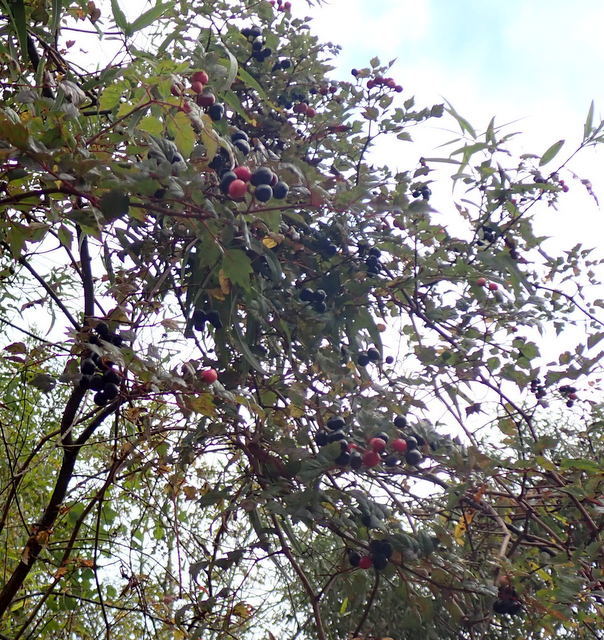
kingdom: Plantae
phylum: Tracheophyta
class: Magnoliopsida
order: Vitales
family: Vitaceae
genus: Nekemias
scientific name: Nekemias arborea
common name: Peppervine
